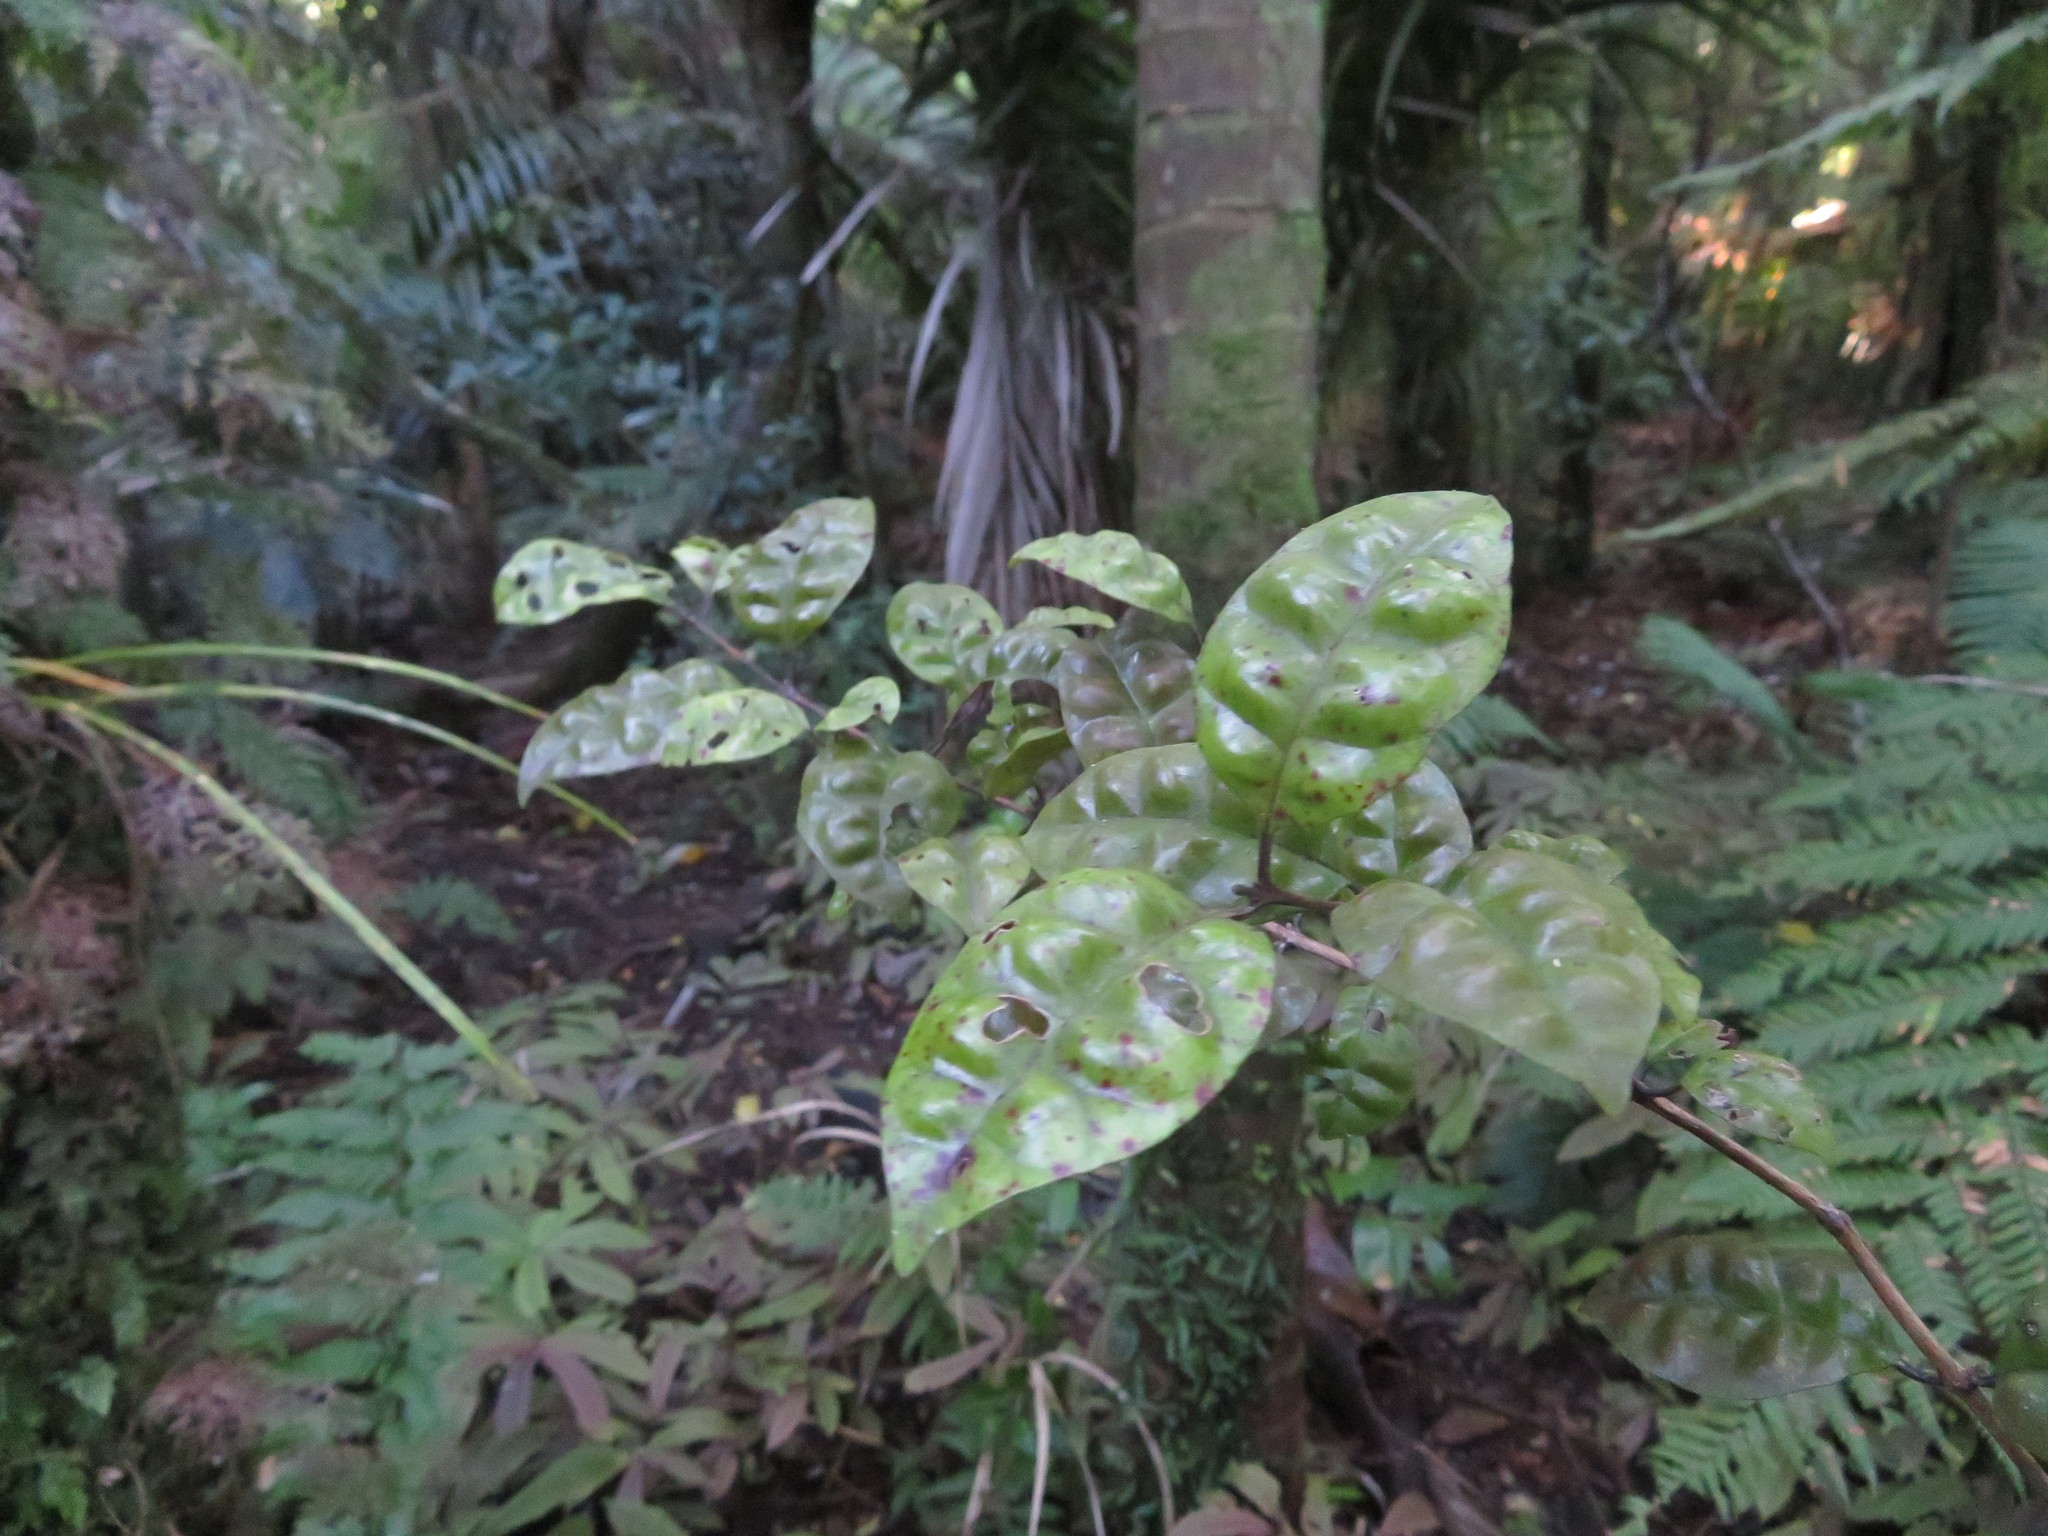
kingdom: Plantae
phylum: Tracheophyta
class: Magnoliopsida
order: Myrtales
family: Myrtaceae
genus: Lophomyrtus
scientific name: Lophomyrtus bullata
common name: Rama rama
